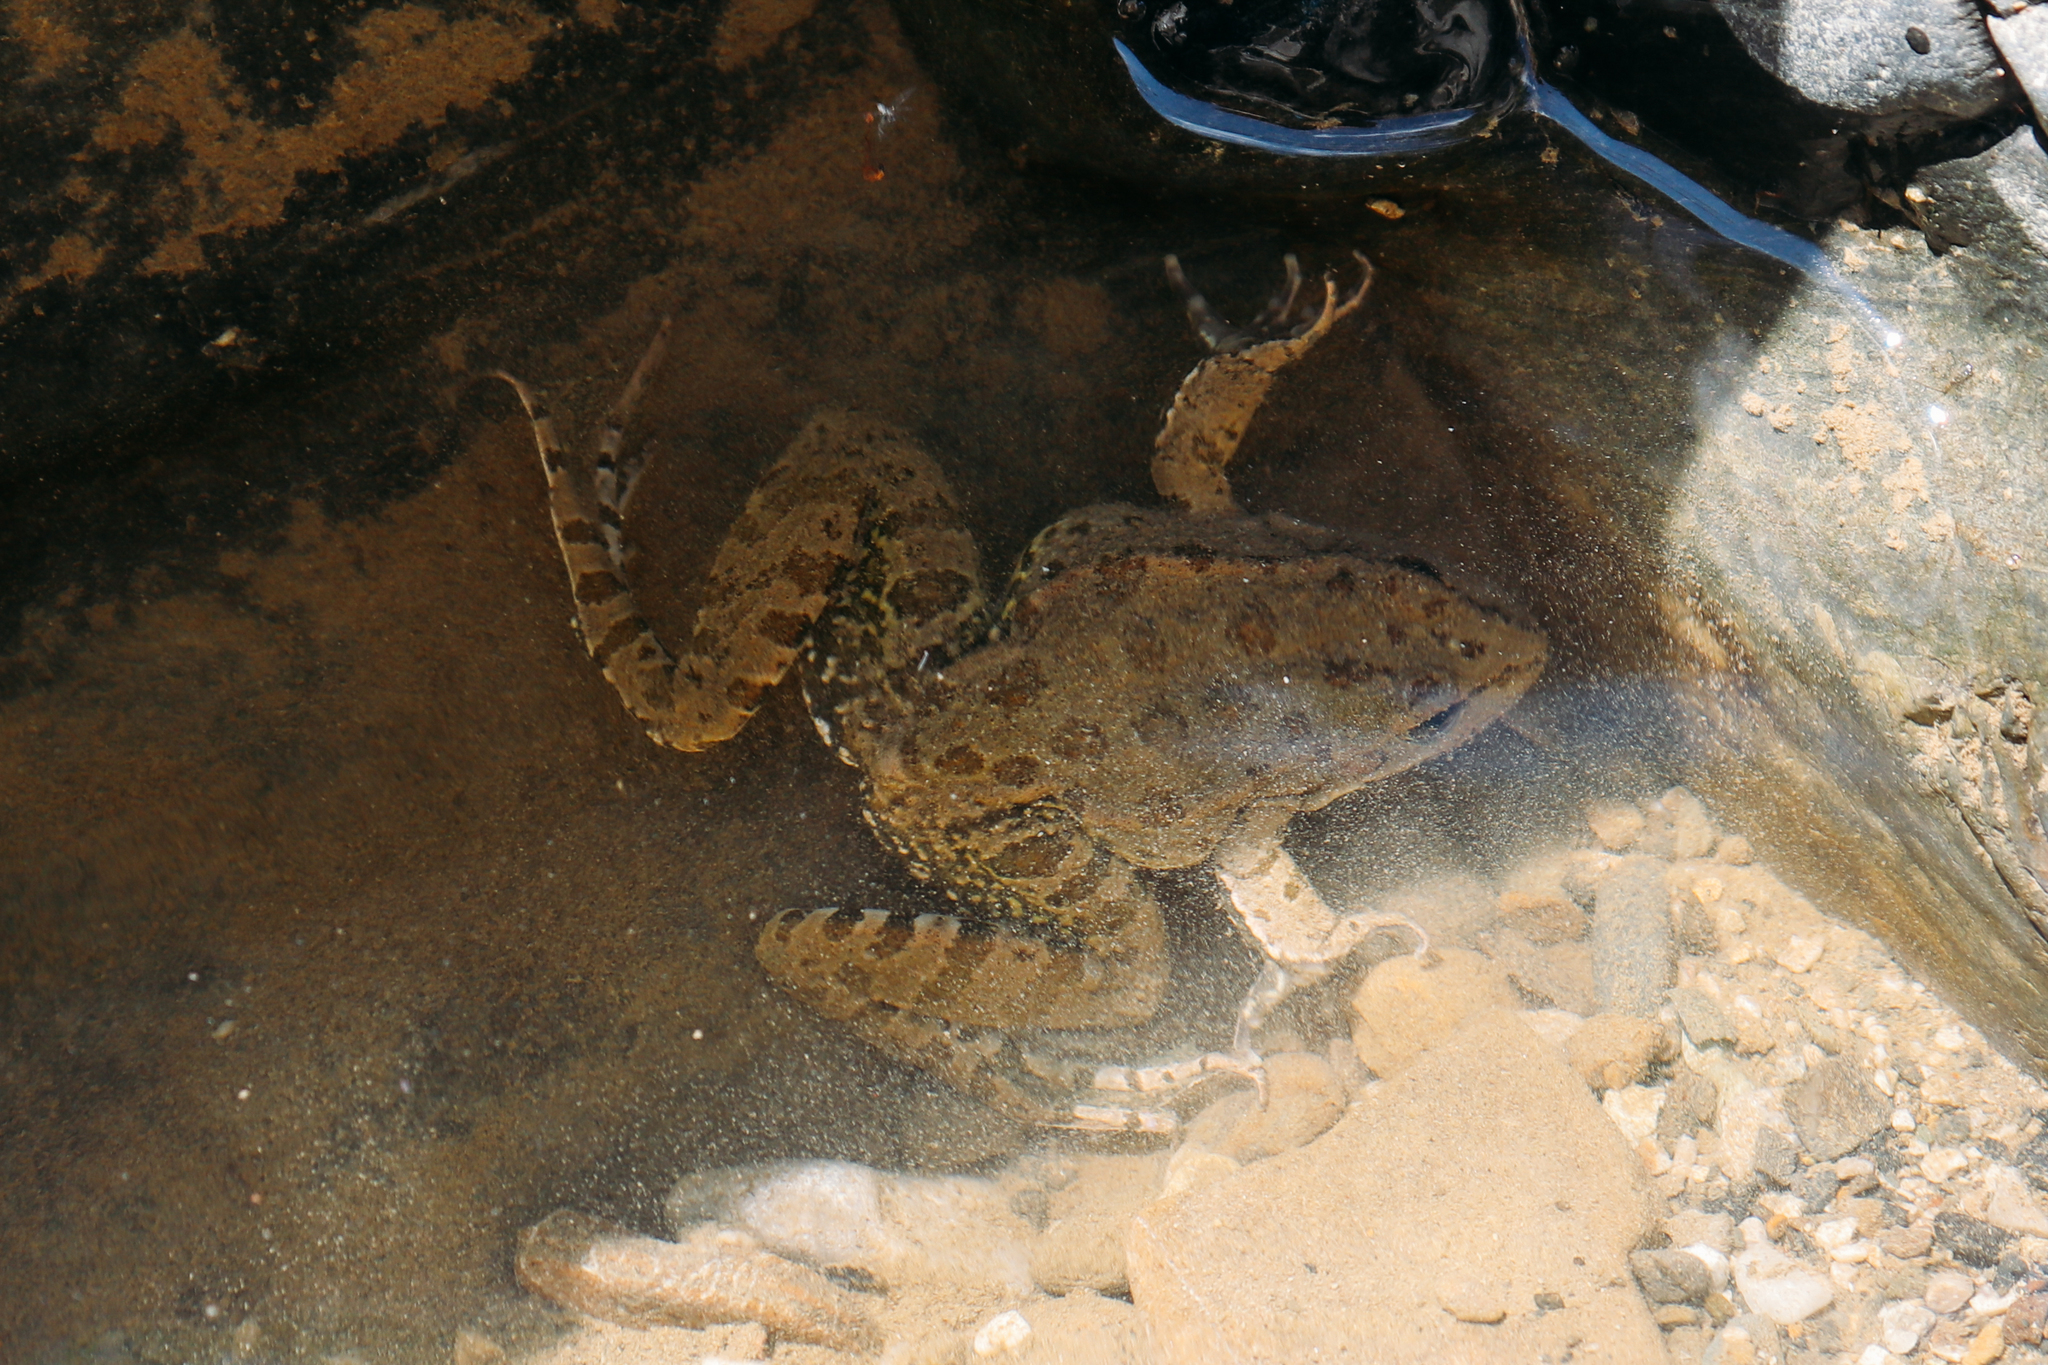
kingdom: Animalia
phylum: Chordata
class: Amphibia
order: Anura
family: Ranidae
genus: Pelophylax
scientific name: Pelophylax ridibundus
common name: Marsh frog
